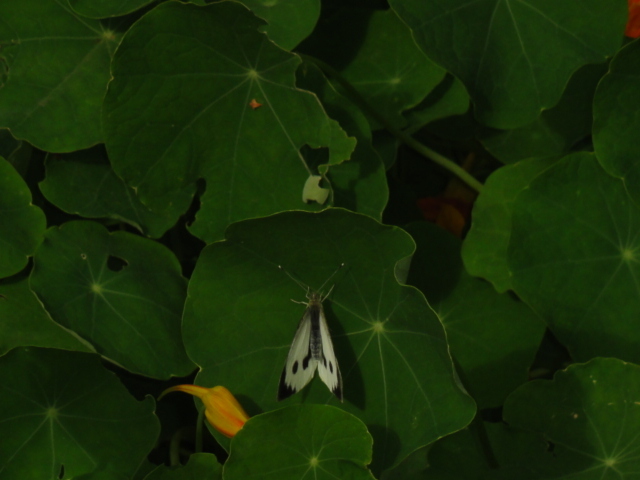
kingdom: Animalia
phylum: Arthropoda
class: Insecta
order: Lepidoptera
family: Pieridae
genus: Pieris
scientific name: Pieris brassicae
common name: Large white
